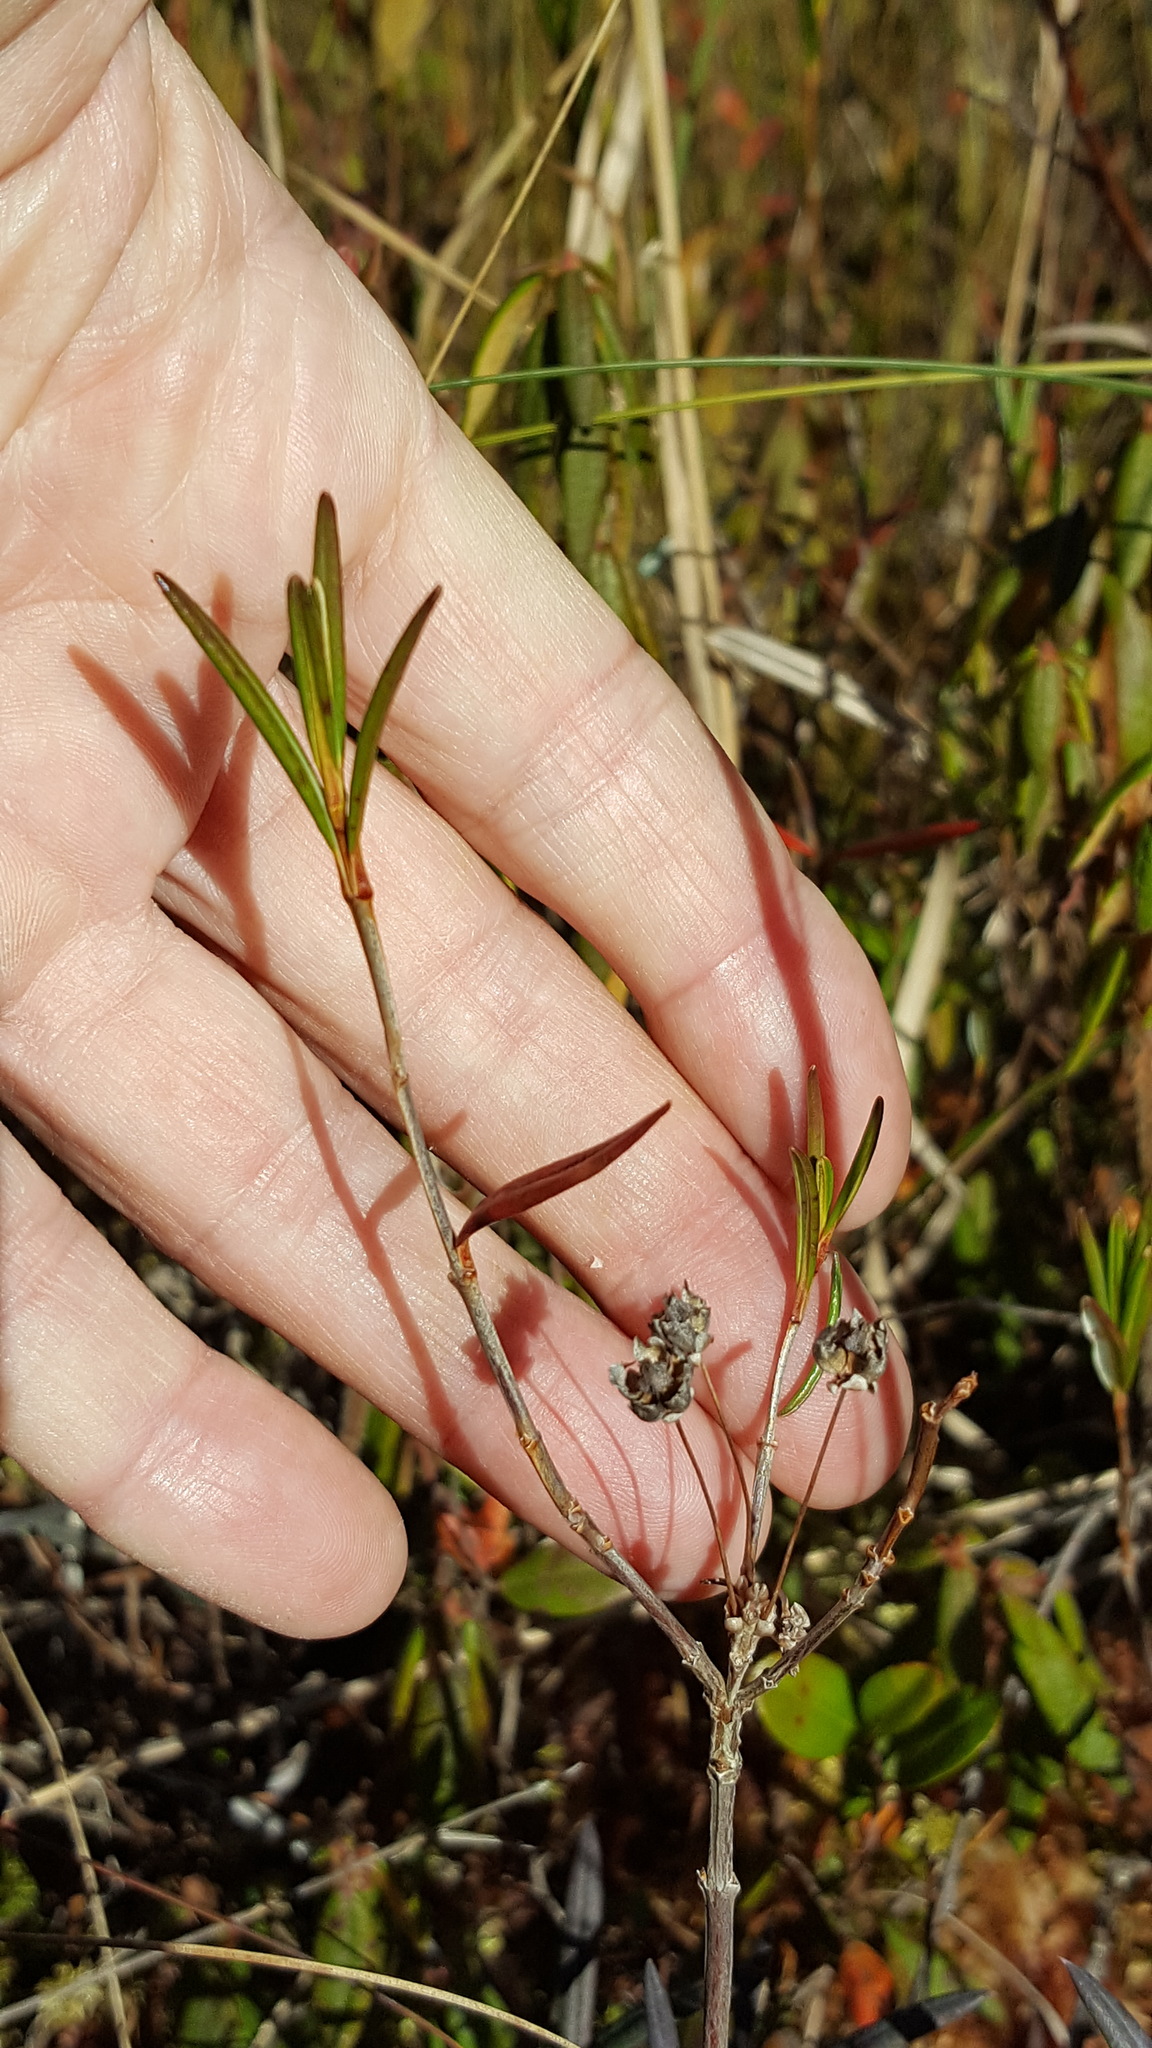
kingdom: Plantae
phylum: Tracheophyta
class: Magnoliopsida
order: Ericales
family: Ericaceae
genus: Kalmia
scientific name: Kalmia polifolia
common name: Bog-laurel
